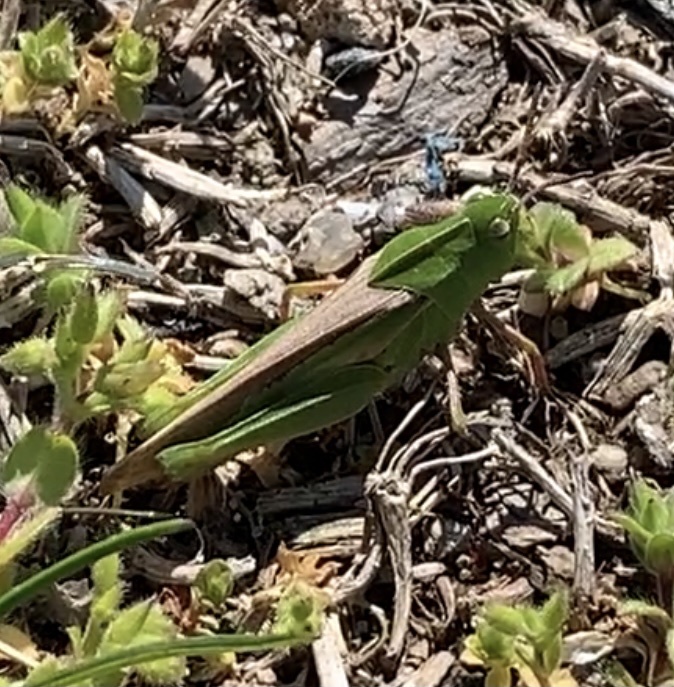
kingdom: Animalia
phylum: Arthropoda
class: Insecta
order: Orthoptera
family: Acrididae
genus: Chortophaga
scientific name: Chortophaga viridifasciata
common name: Green-striped grasshopper
